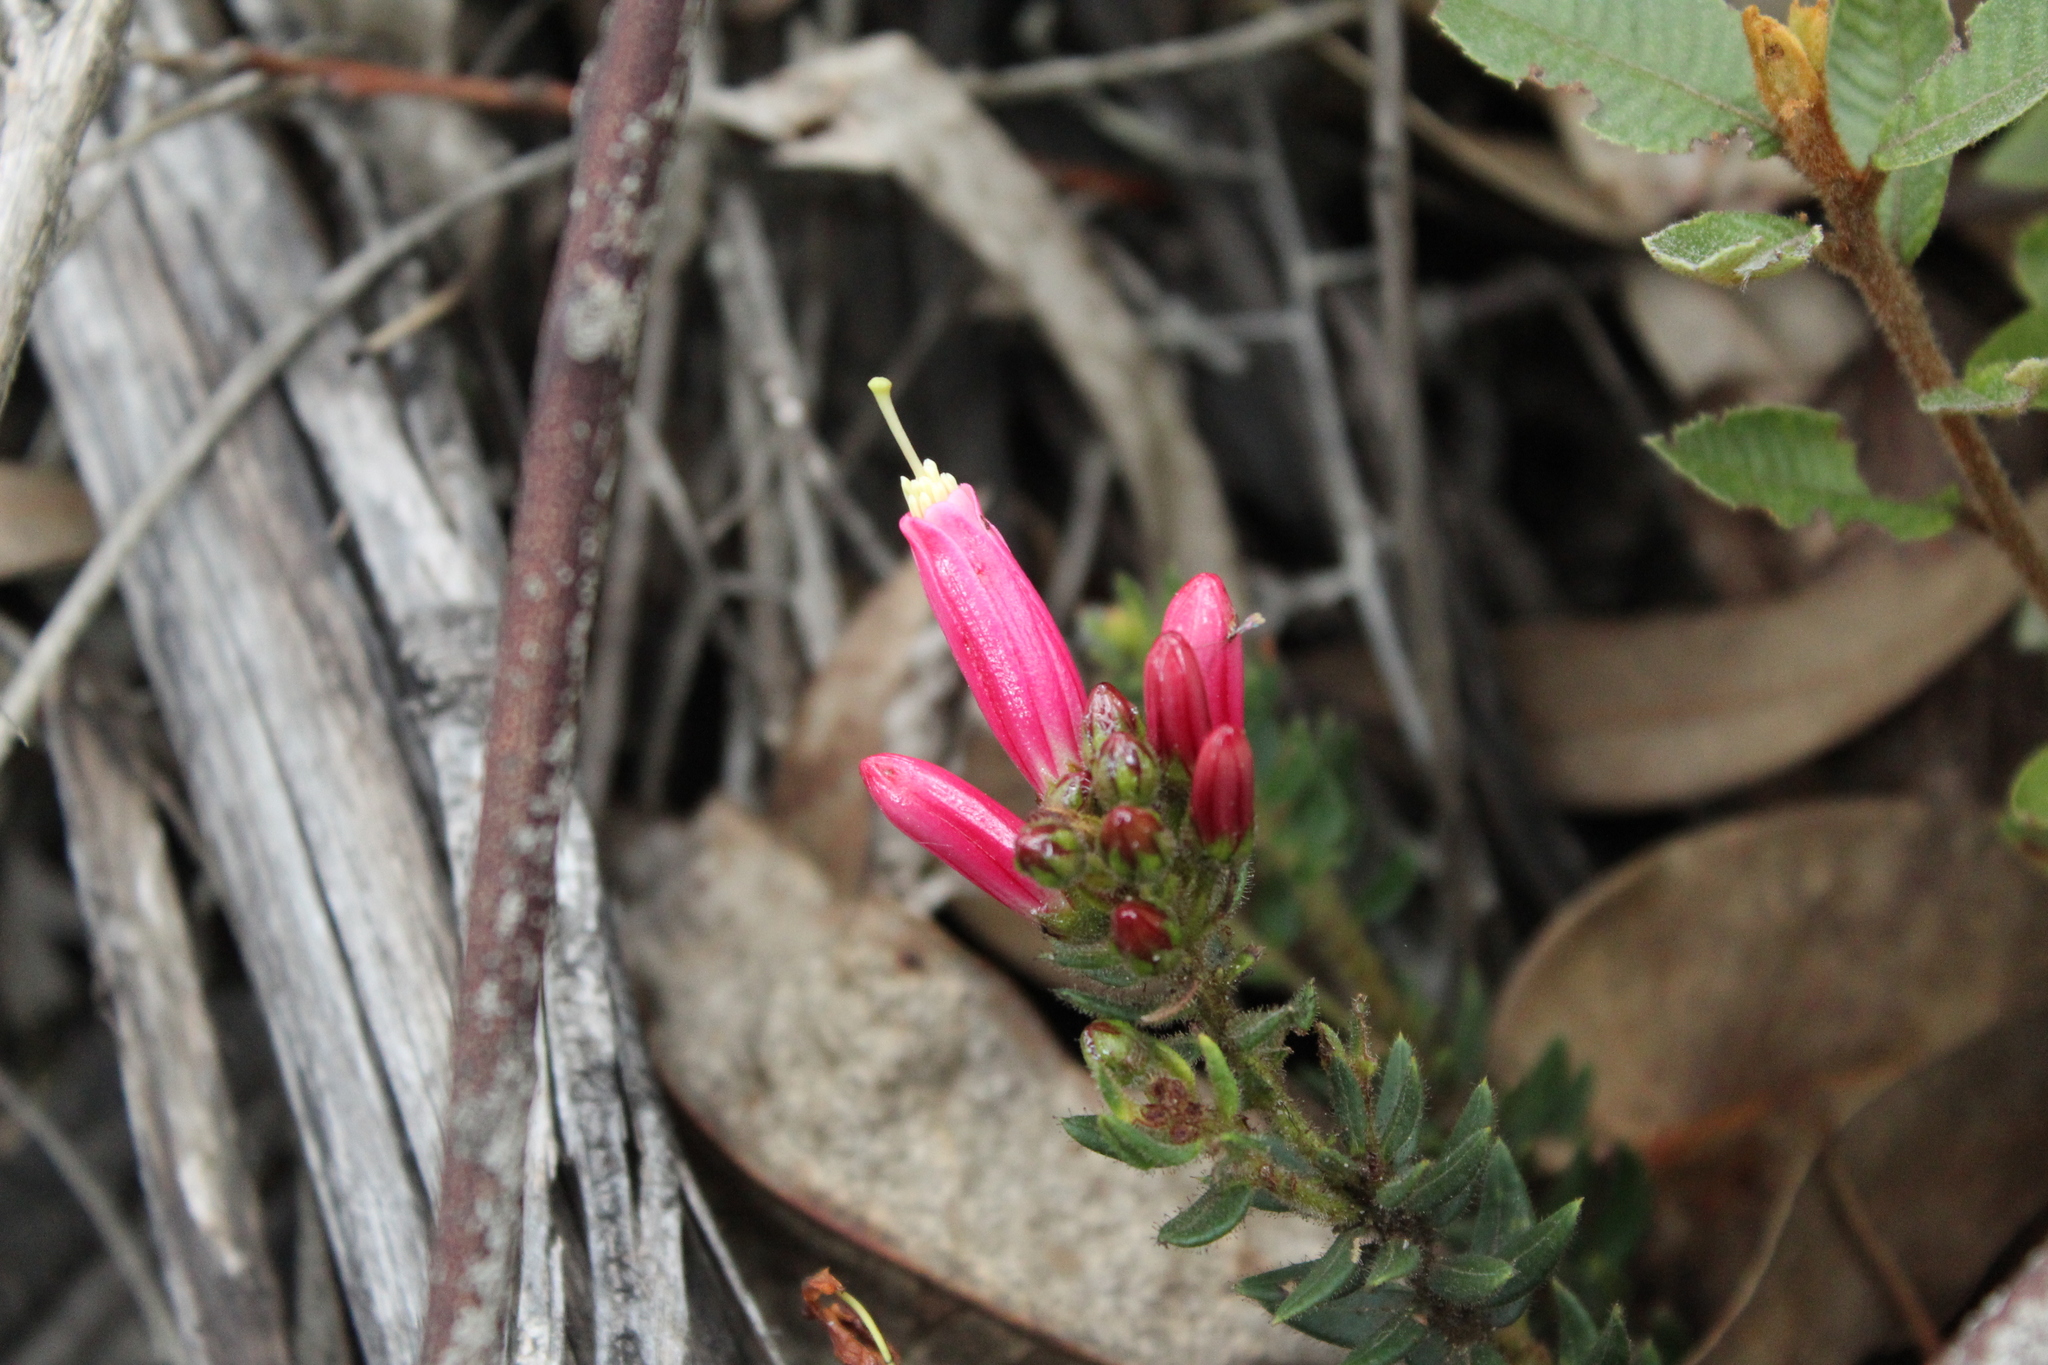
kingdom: Plantae
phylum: Tracheophyta
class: Magnoliopsida
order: Ericales
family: Ericaceae
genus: Bejaria
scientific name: Bejaria resinosa
